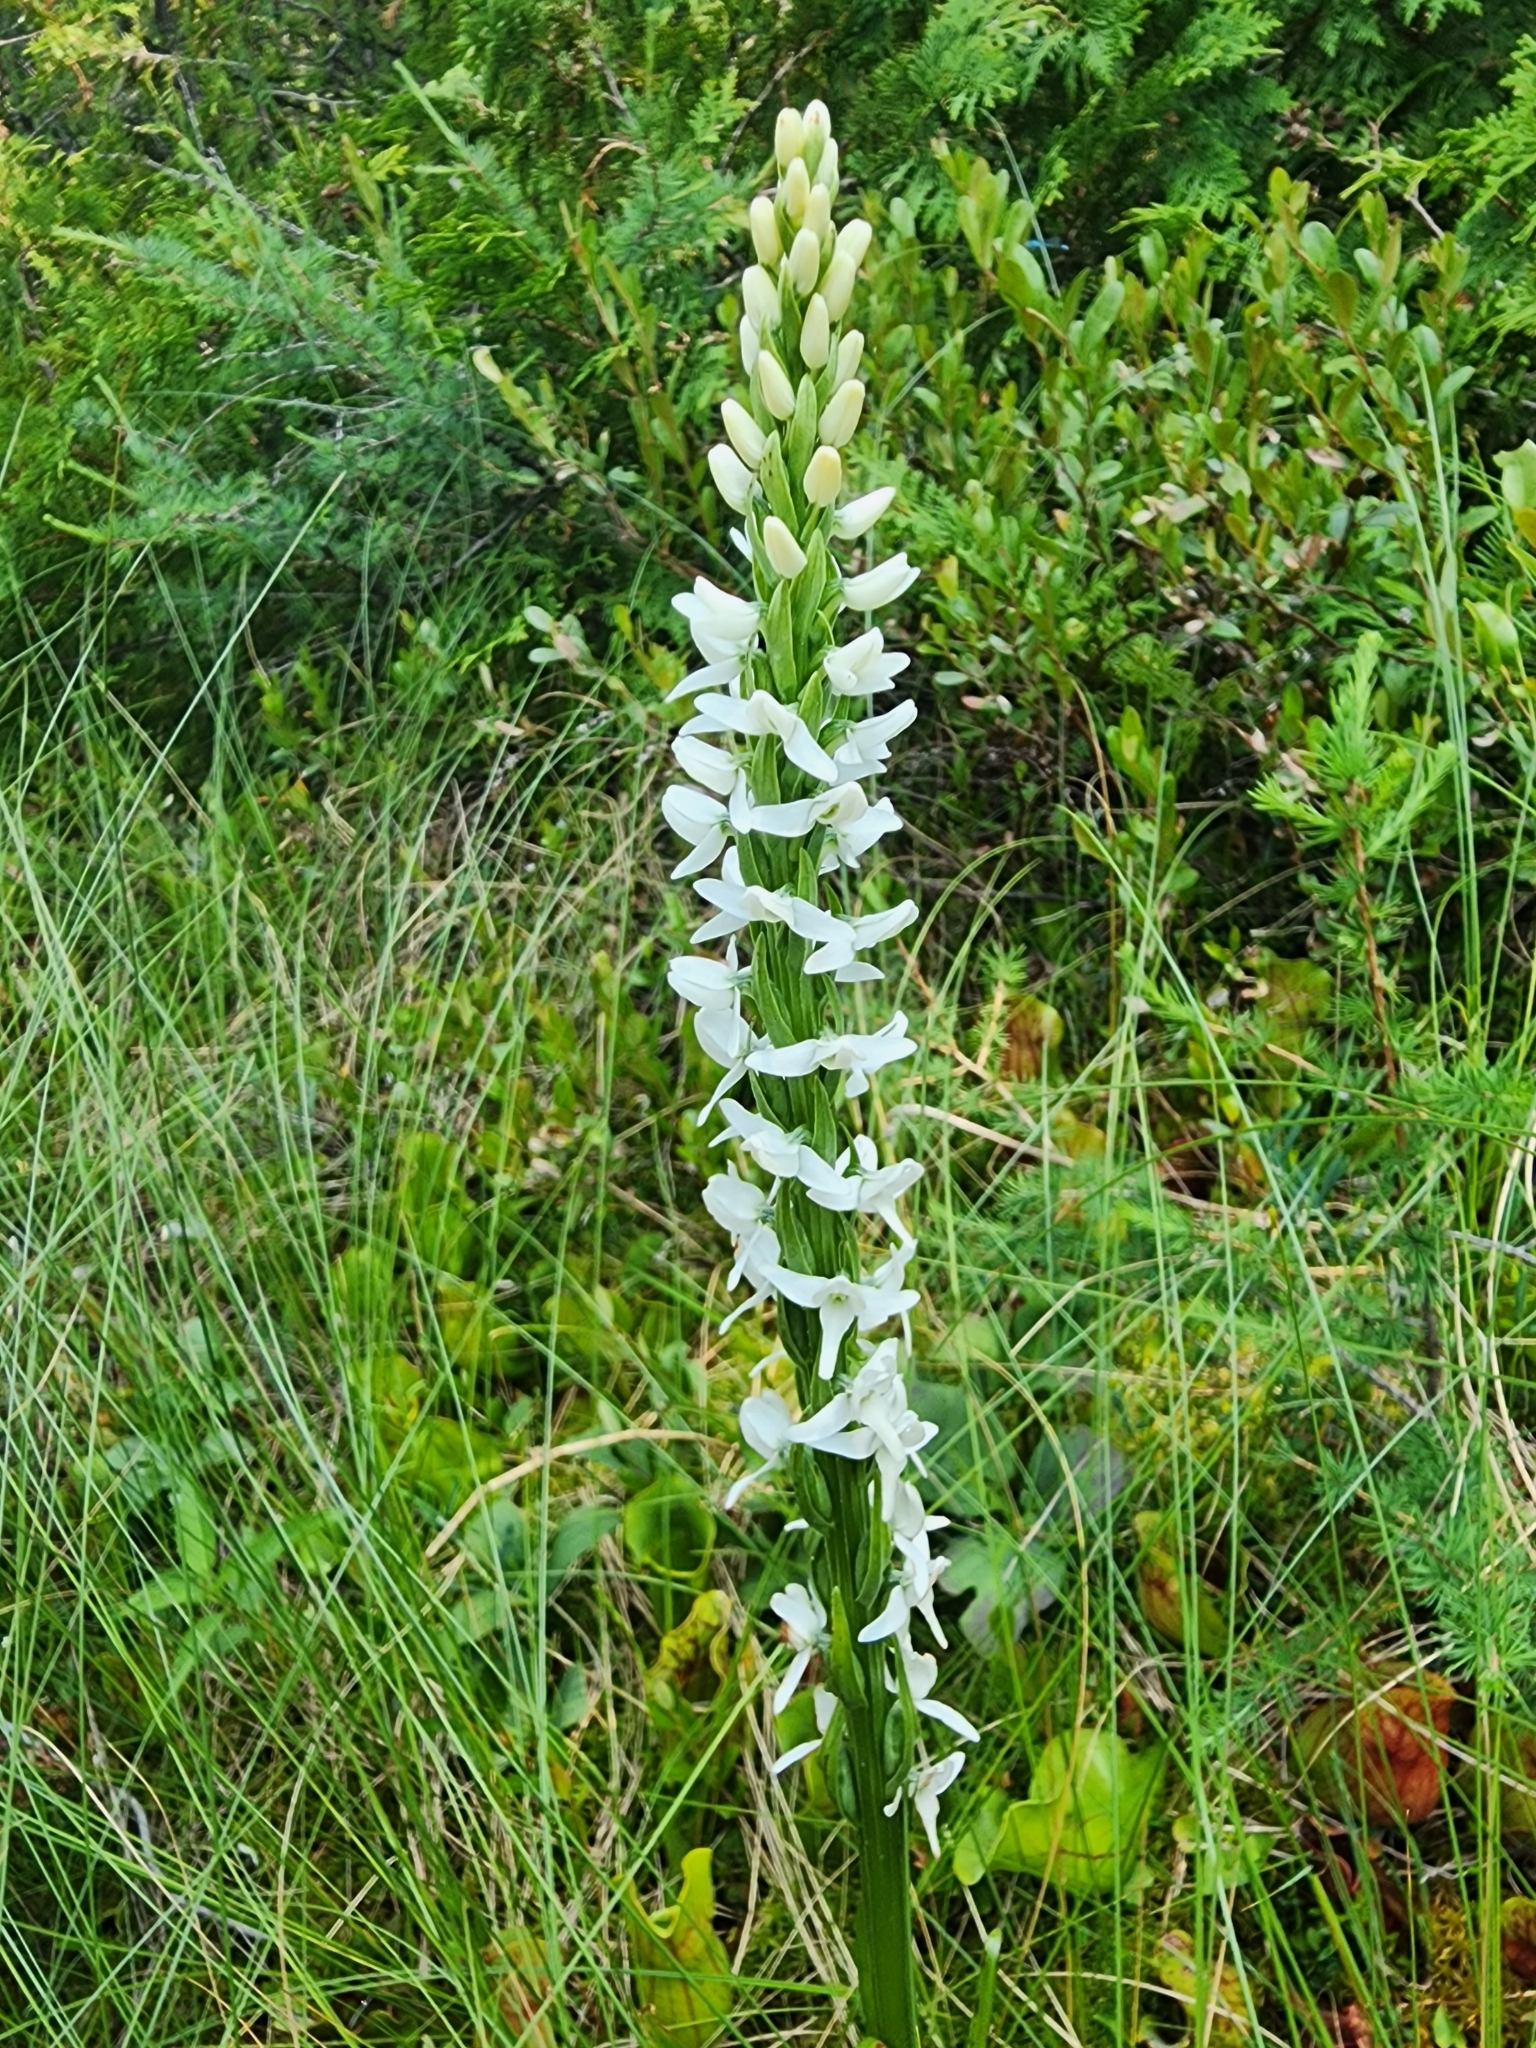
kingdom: Plantae
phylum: Tracheophyta
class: Liliopsida
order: Asparagales
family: Orchidaceae
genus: Platanthera
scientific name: Platanthera dilatata
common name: Bog candles
